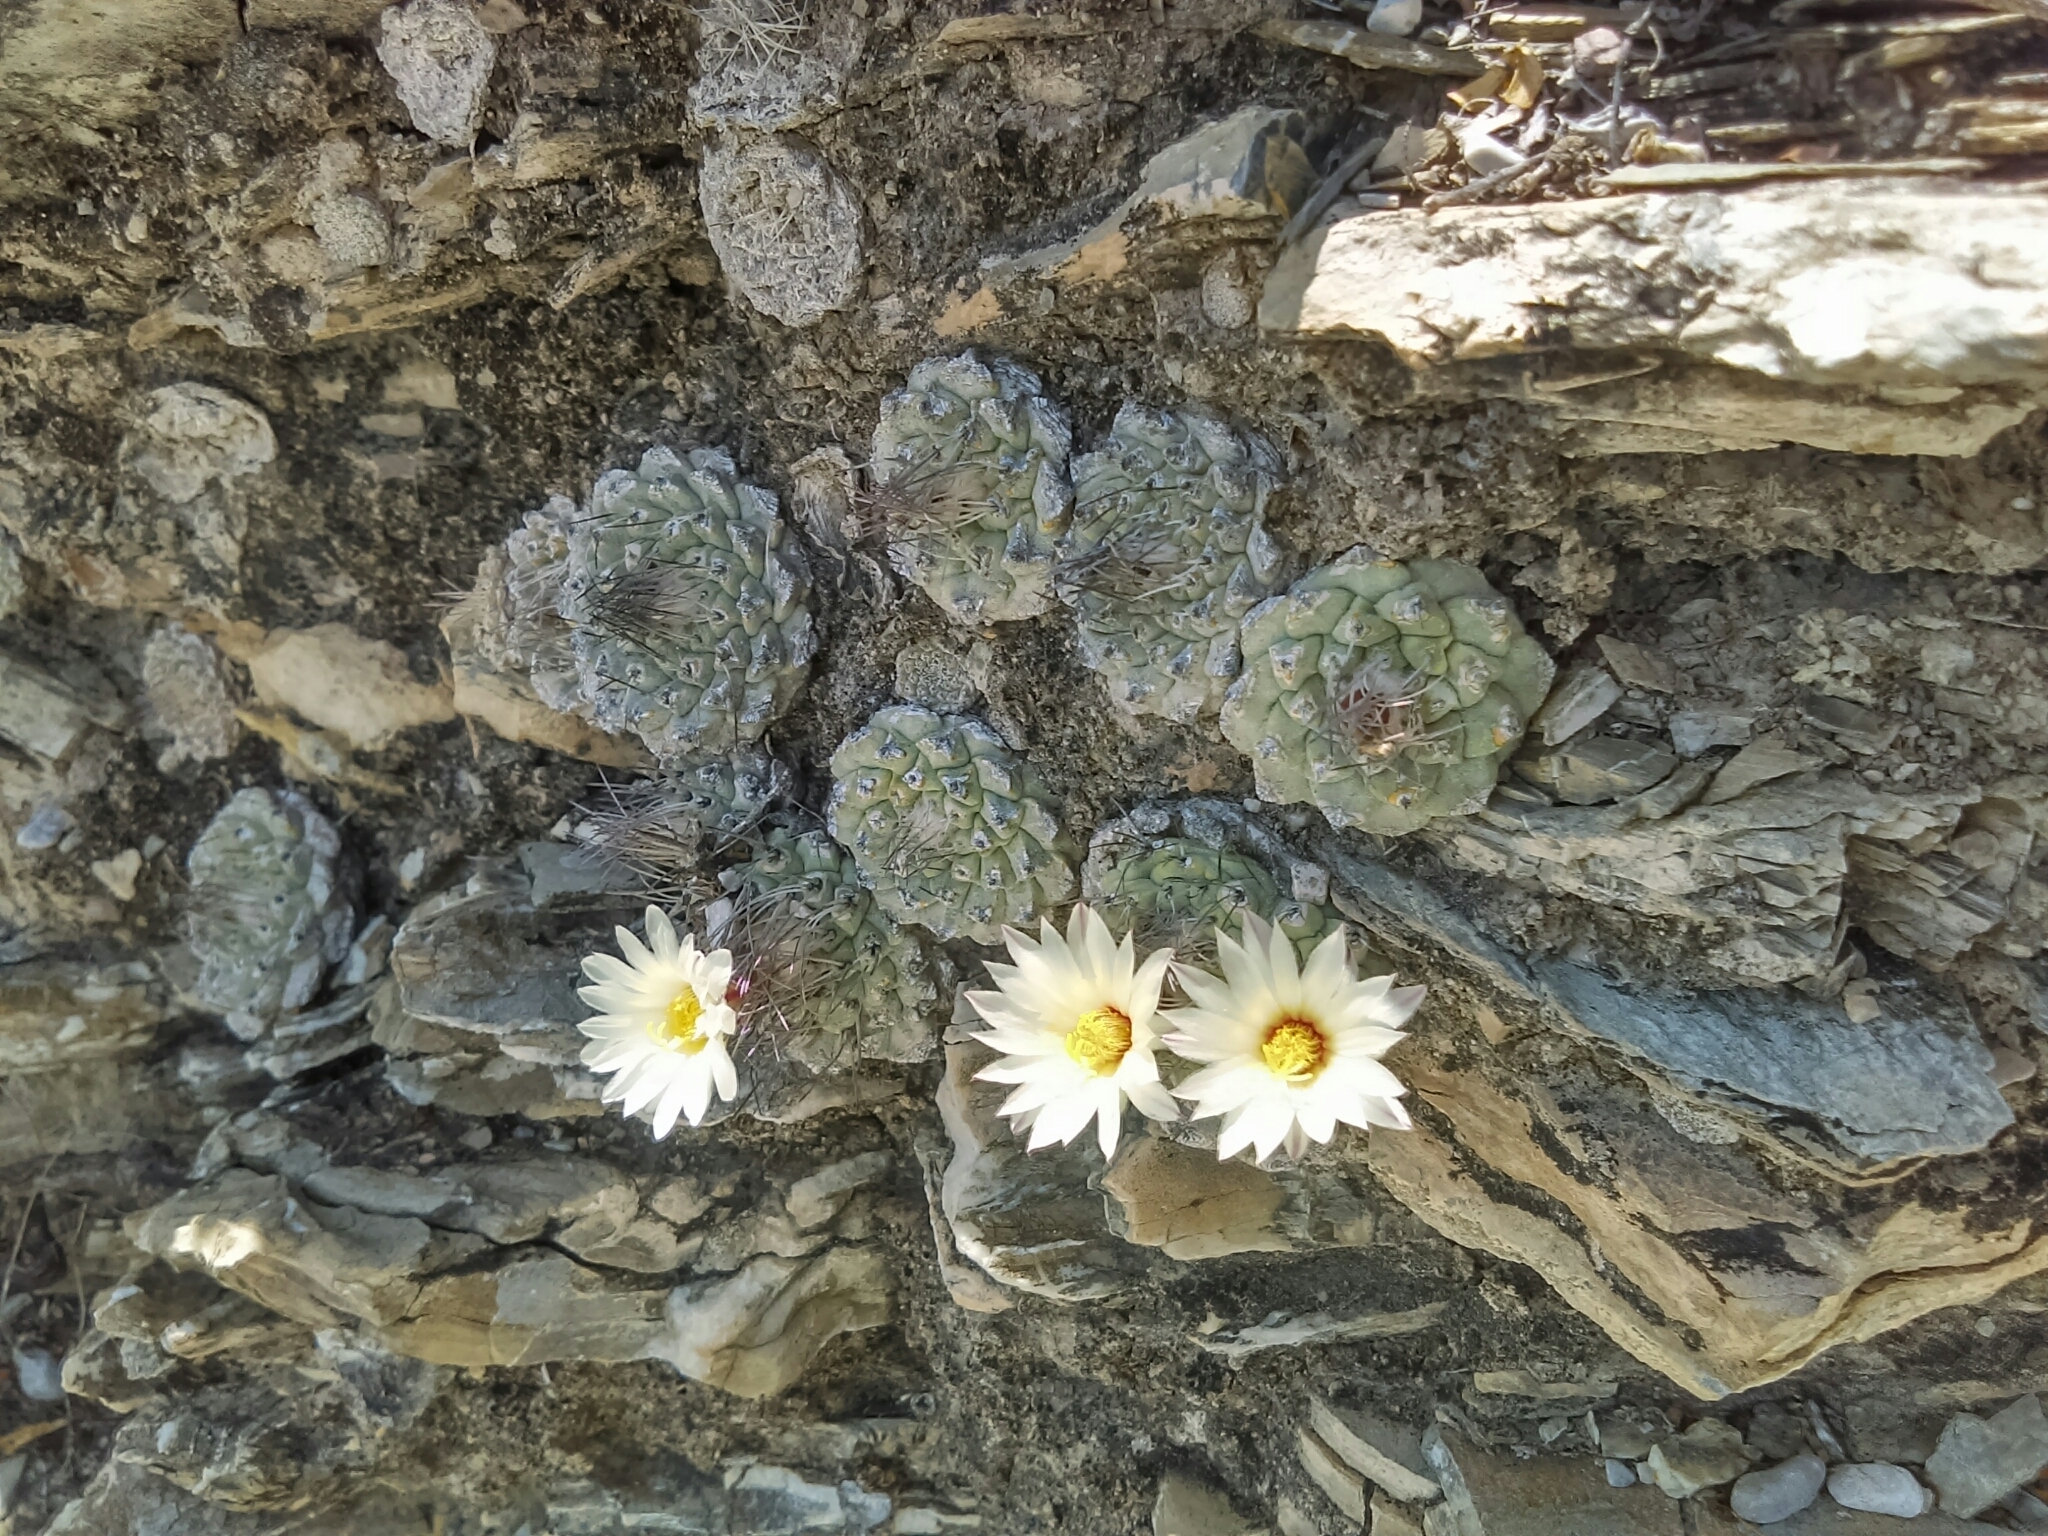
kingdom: Plantae
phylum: Tracheophyta
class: Magnoliopsida
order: Caryophyllales
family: Cactaceae
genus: Strombocactus
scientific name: Strombocactus disciformis
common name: Top cactus
